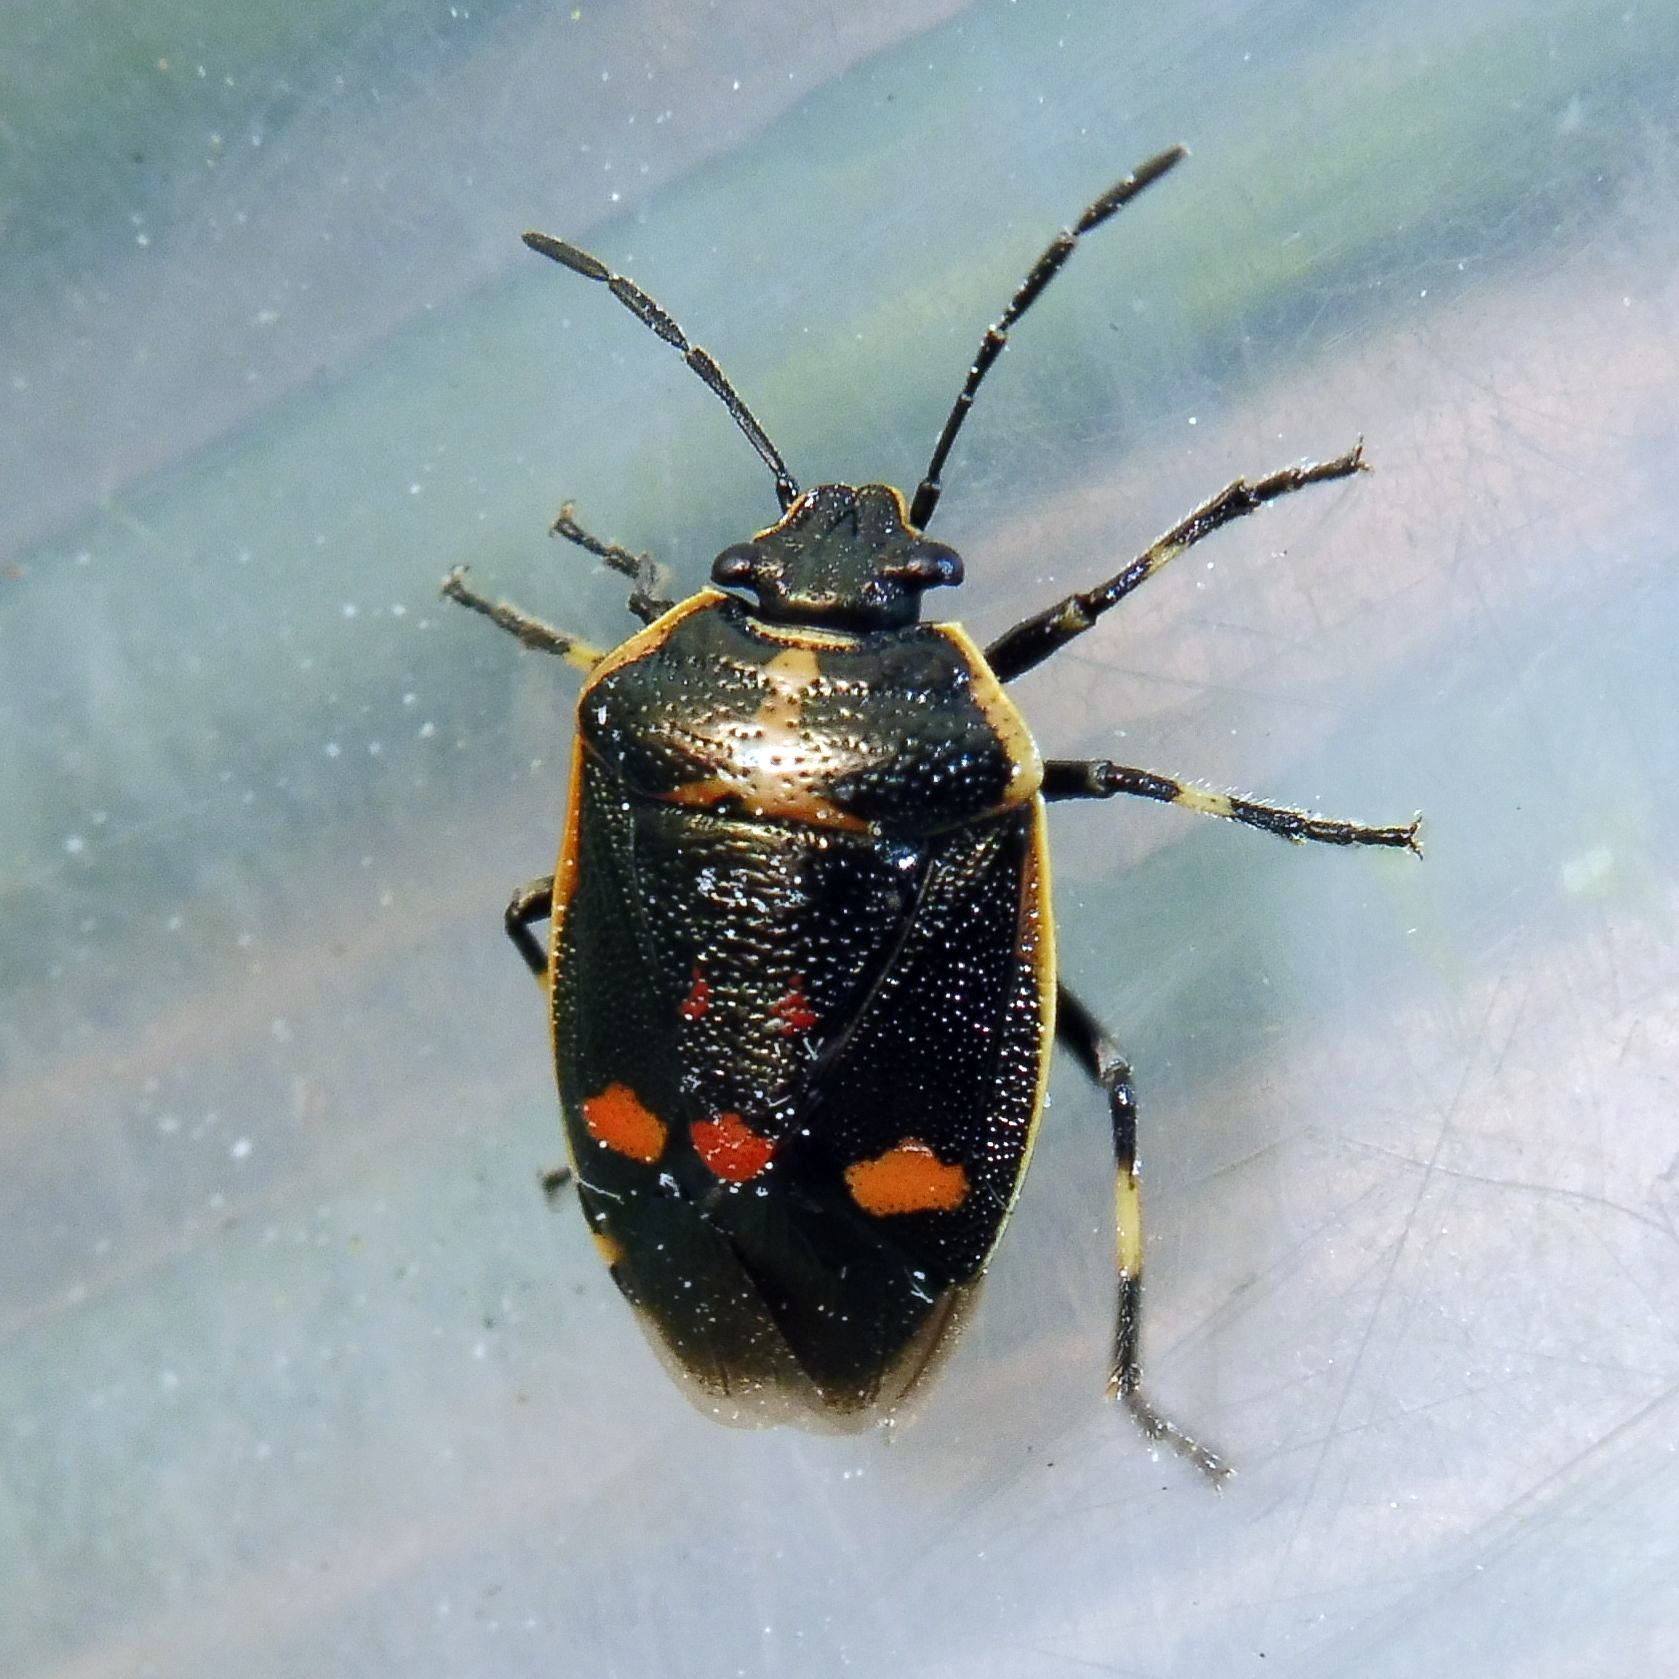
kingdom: Animalia
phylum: Arthropoda
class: Insecta
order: Hemiptera
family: Pentatomidae
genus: Eurydema
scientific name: Eurydema oleracea
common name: Cabbage bug
